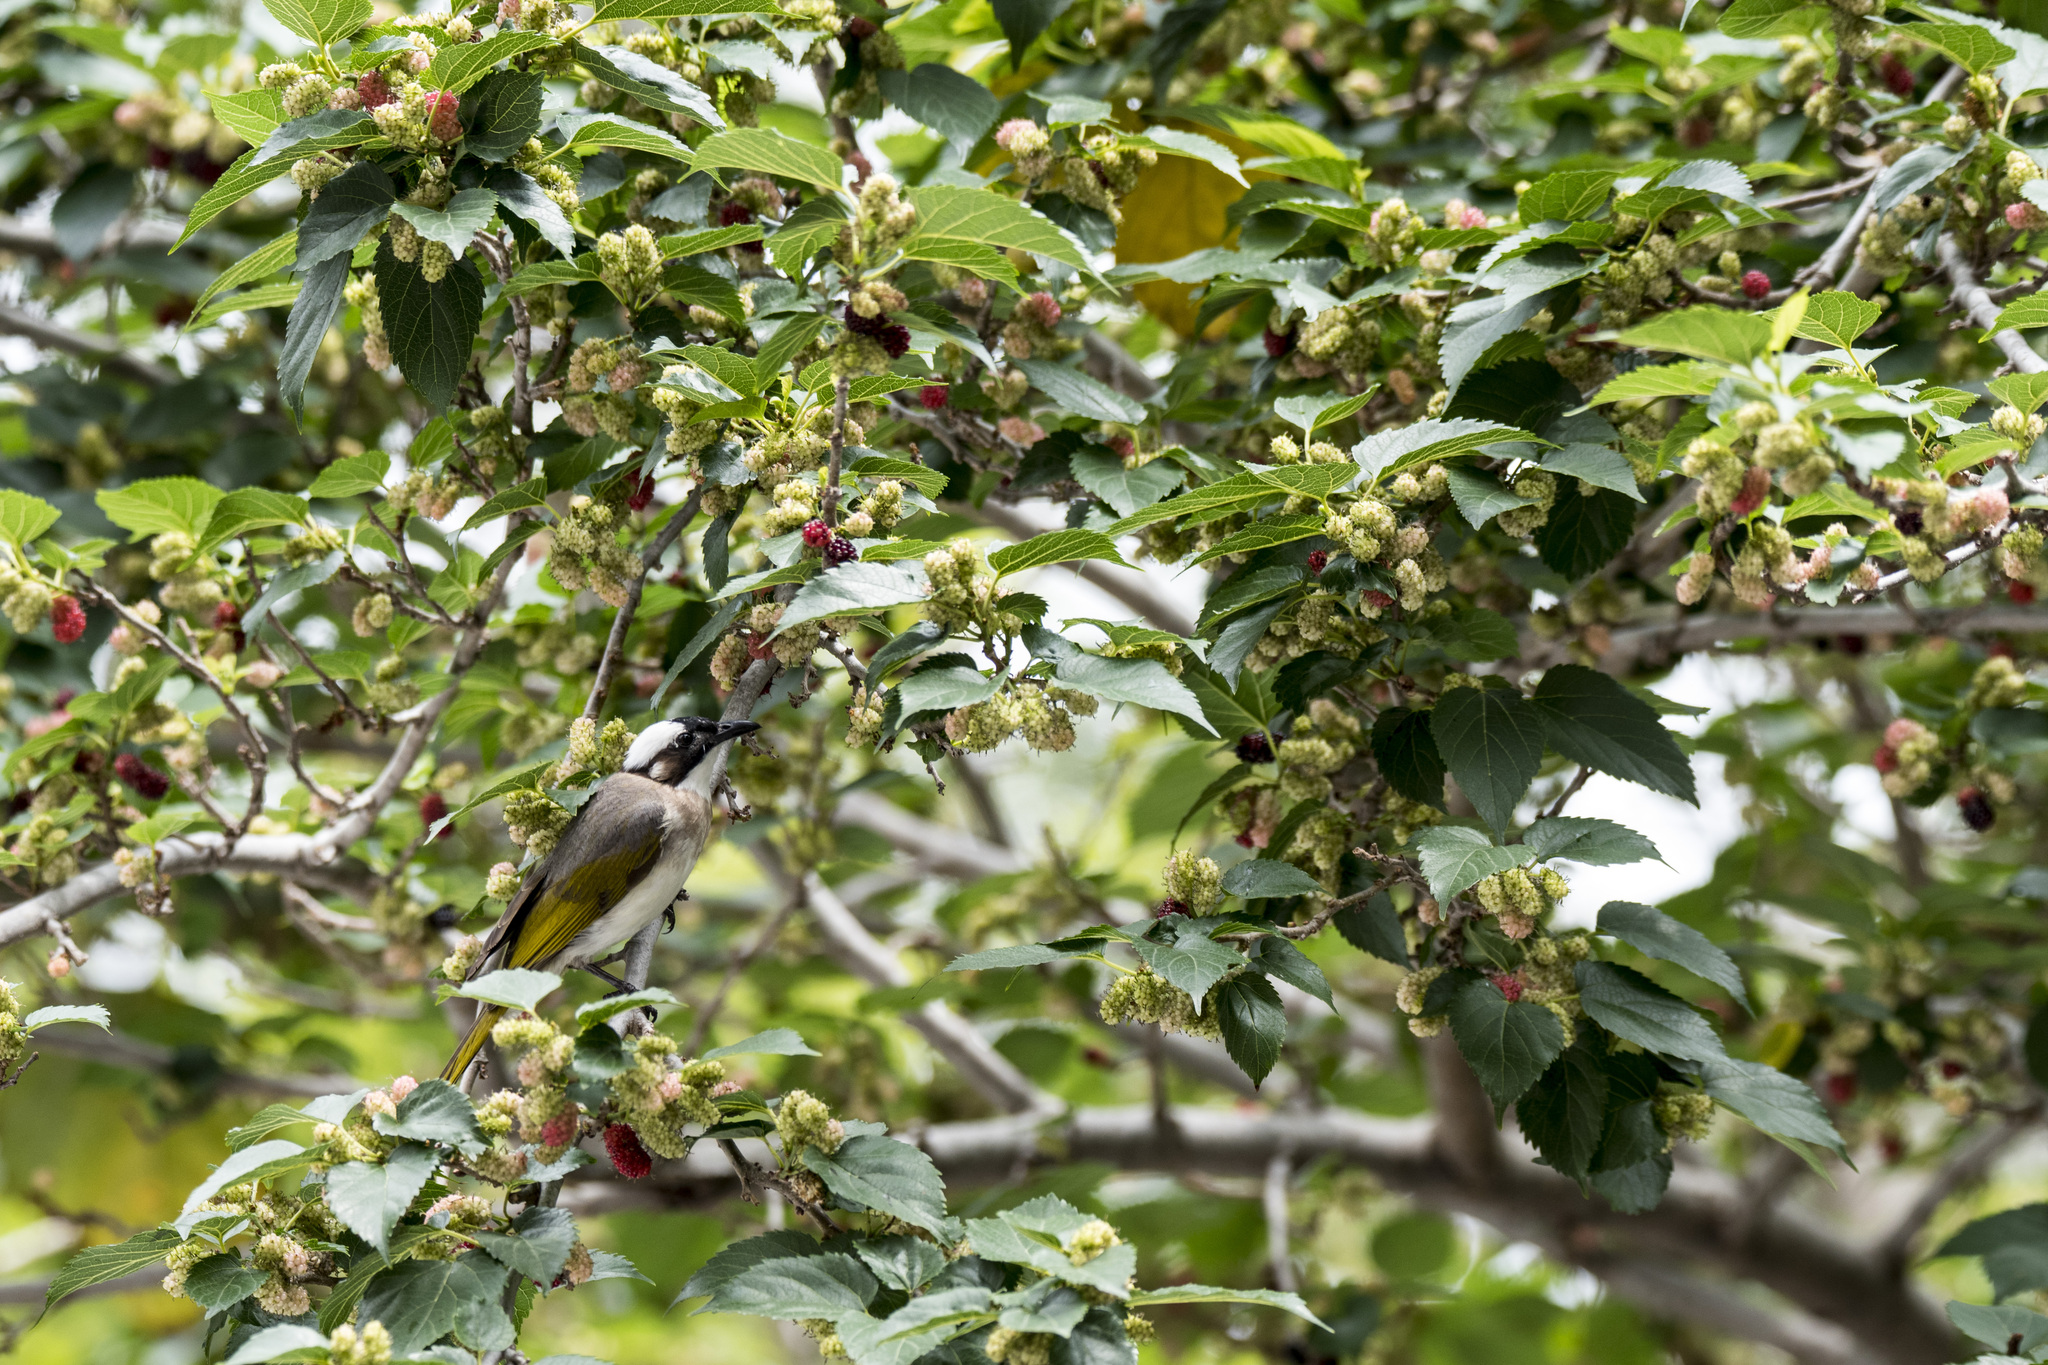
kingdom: Animalia
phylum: Chordata
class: Aves
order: Passeriformes
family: Pycnonotidae
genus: Pycnonotus
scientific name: Pycnonotus sinensis
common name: Light-vented bulbul
